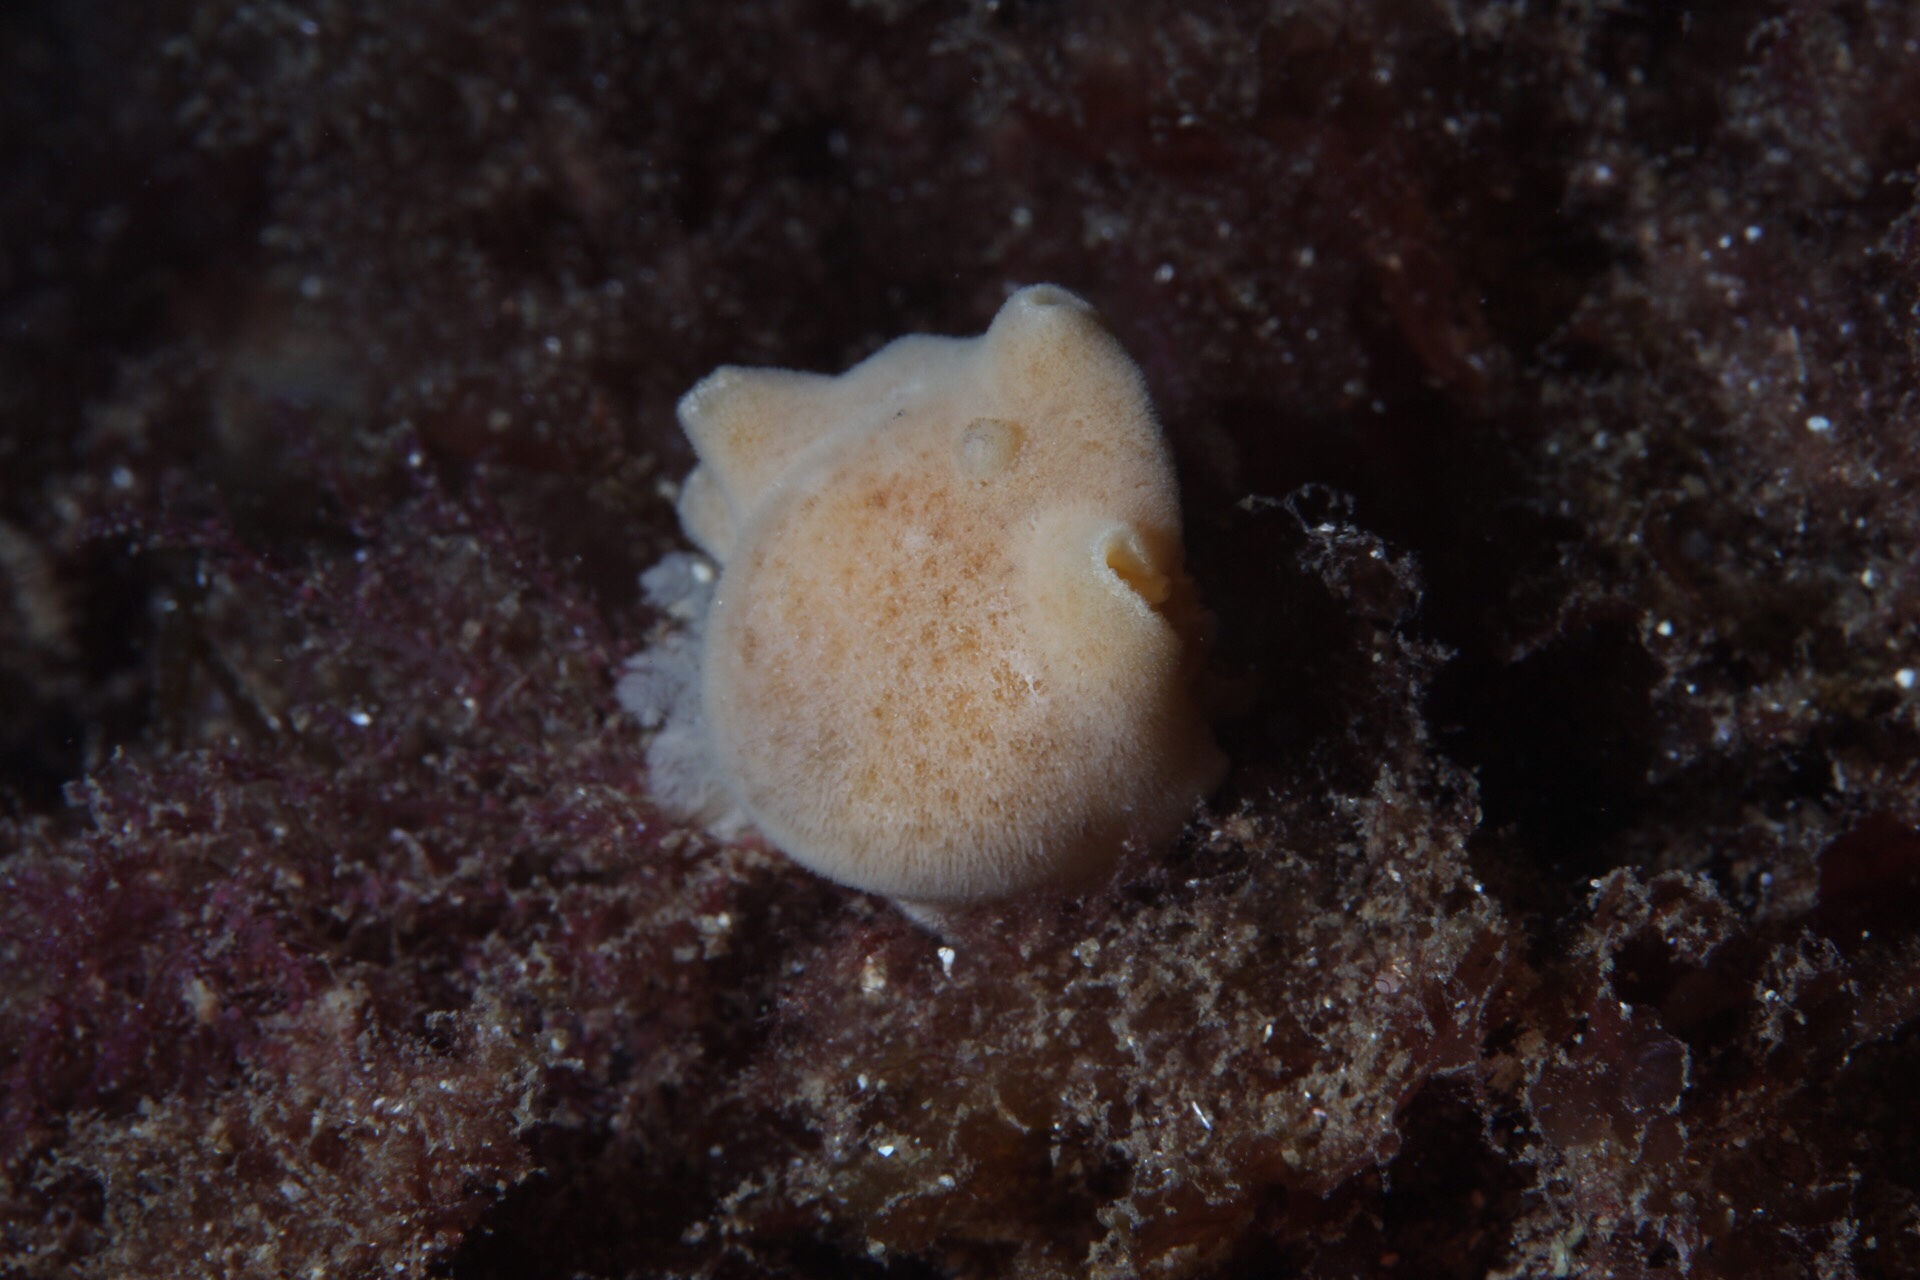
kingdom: Animalia
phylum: Mollusca
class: Gastropoda
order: Nudibranchia
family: Discodorididae
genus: Jorunna
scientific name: Jorunna tomentosa
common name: Grey sea slug
